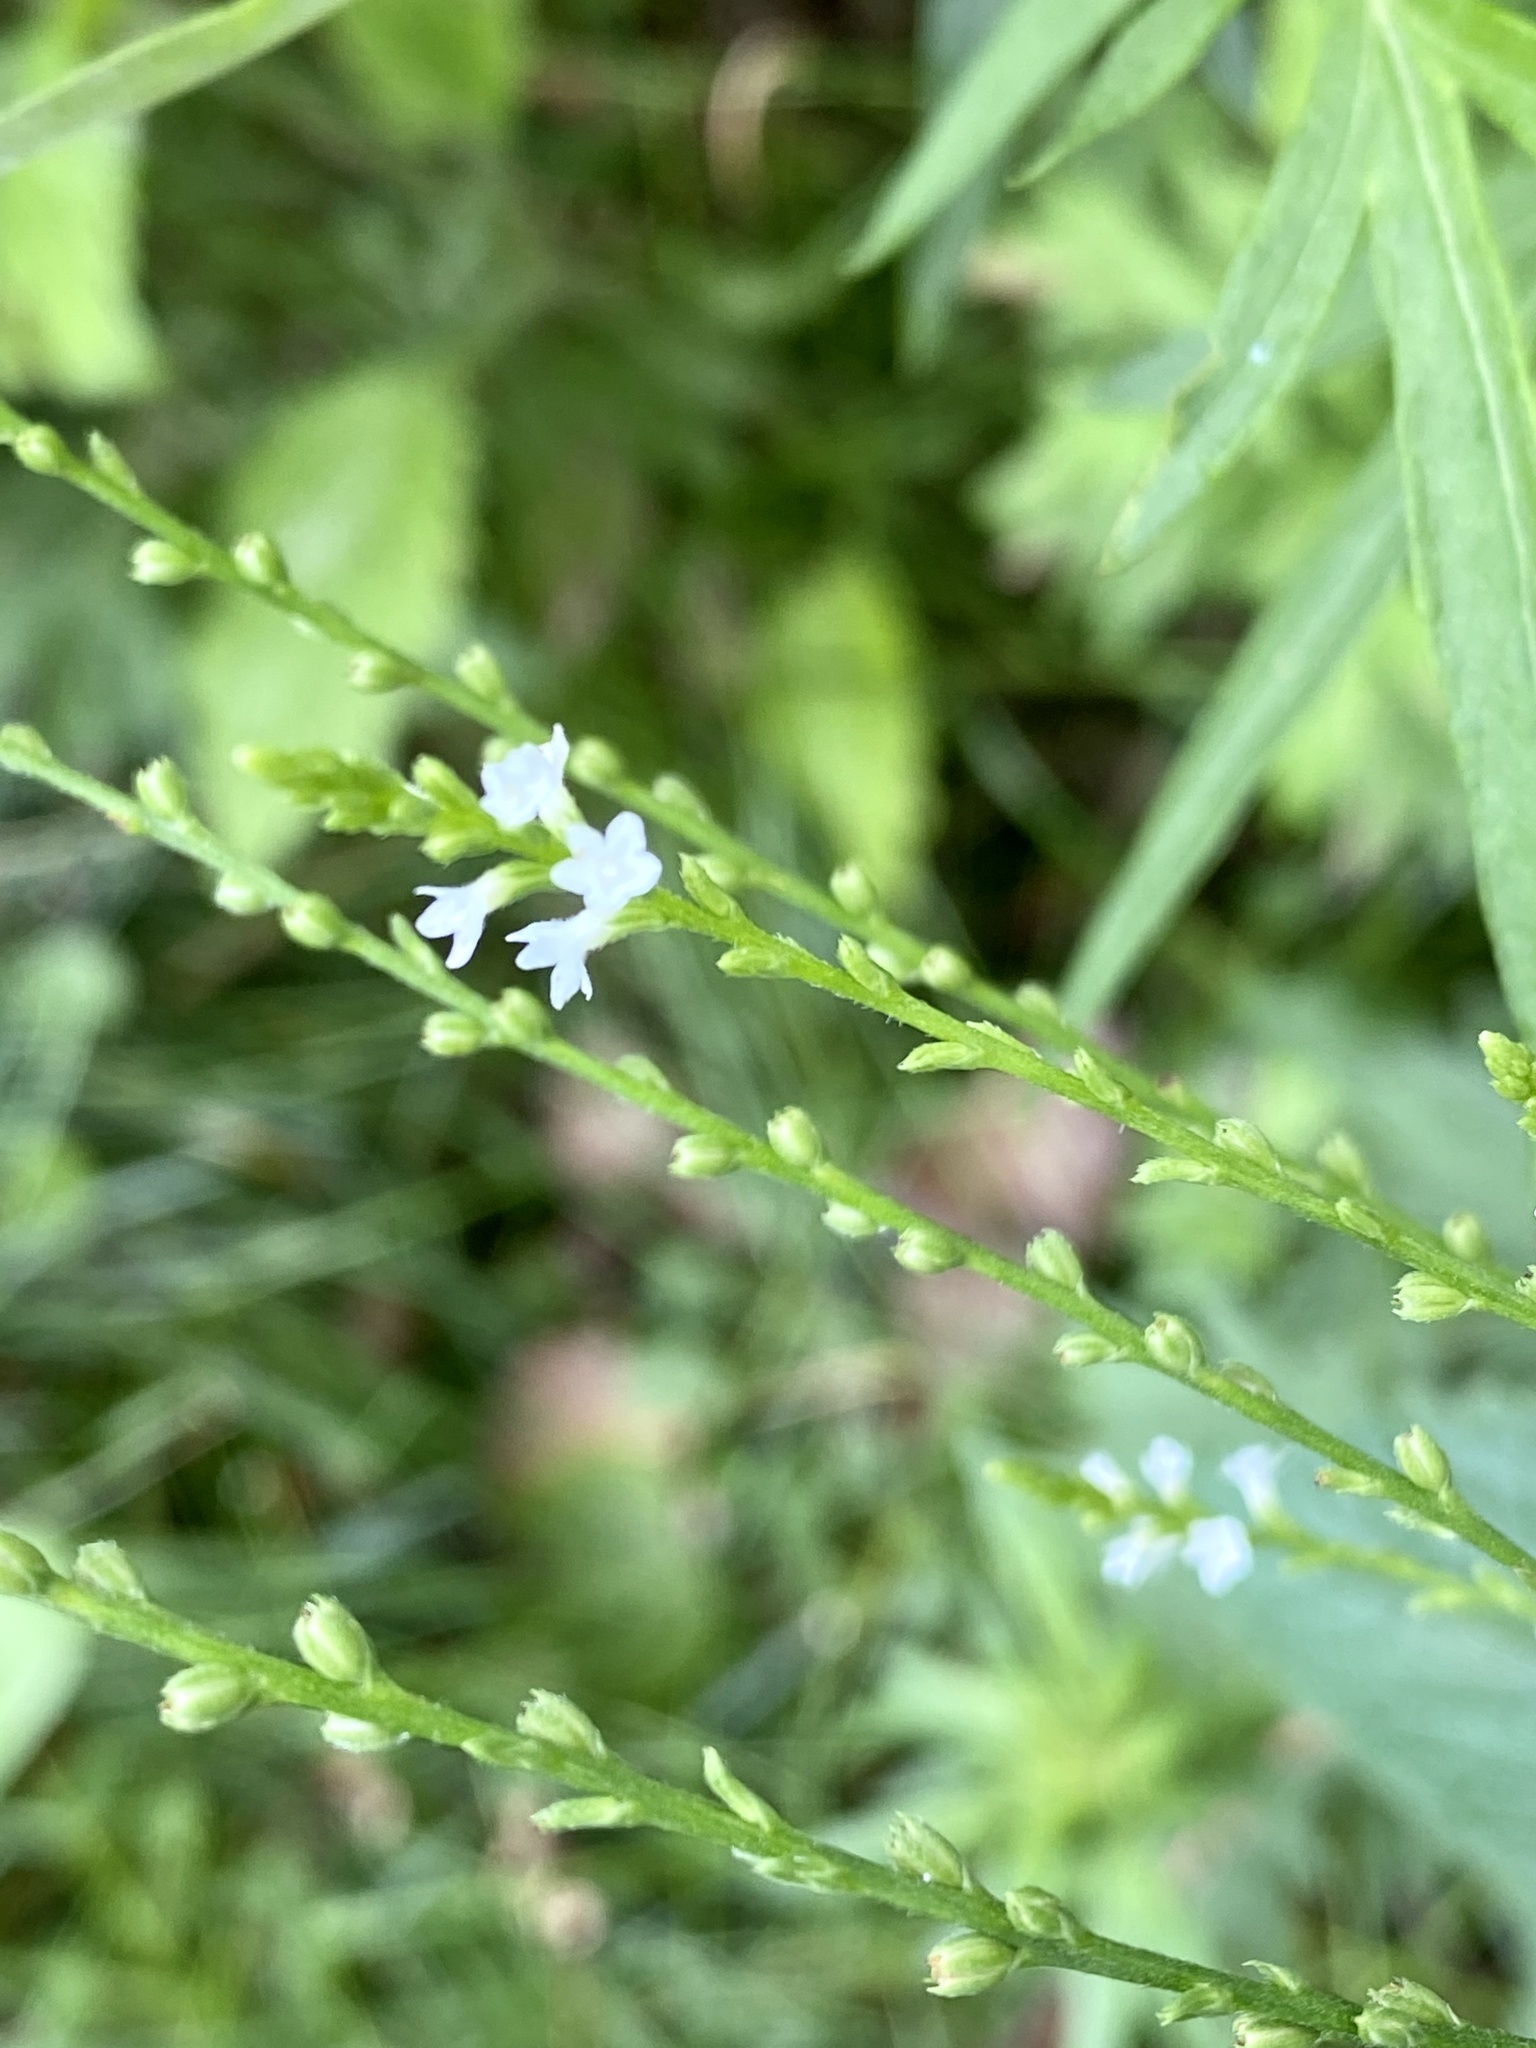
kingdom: Plantae
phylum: Tracheophyta
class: Magnoliopsida
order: Lamiales
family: Verbenaceae
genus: Verbena
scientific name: Verbena urticifolia
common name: Nettle-leaved vervain
